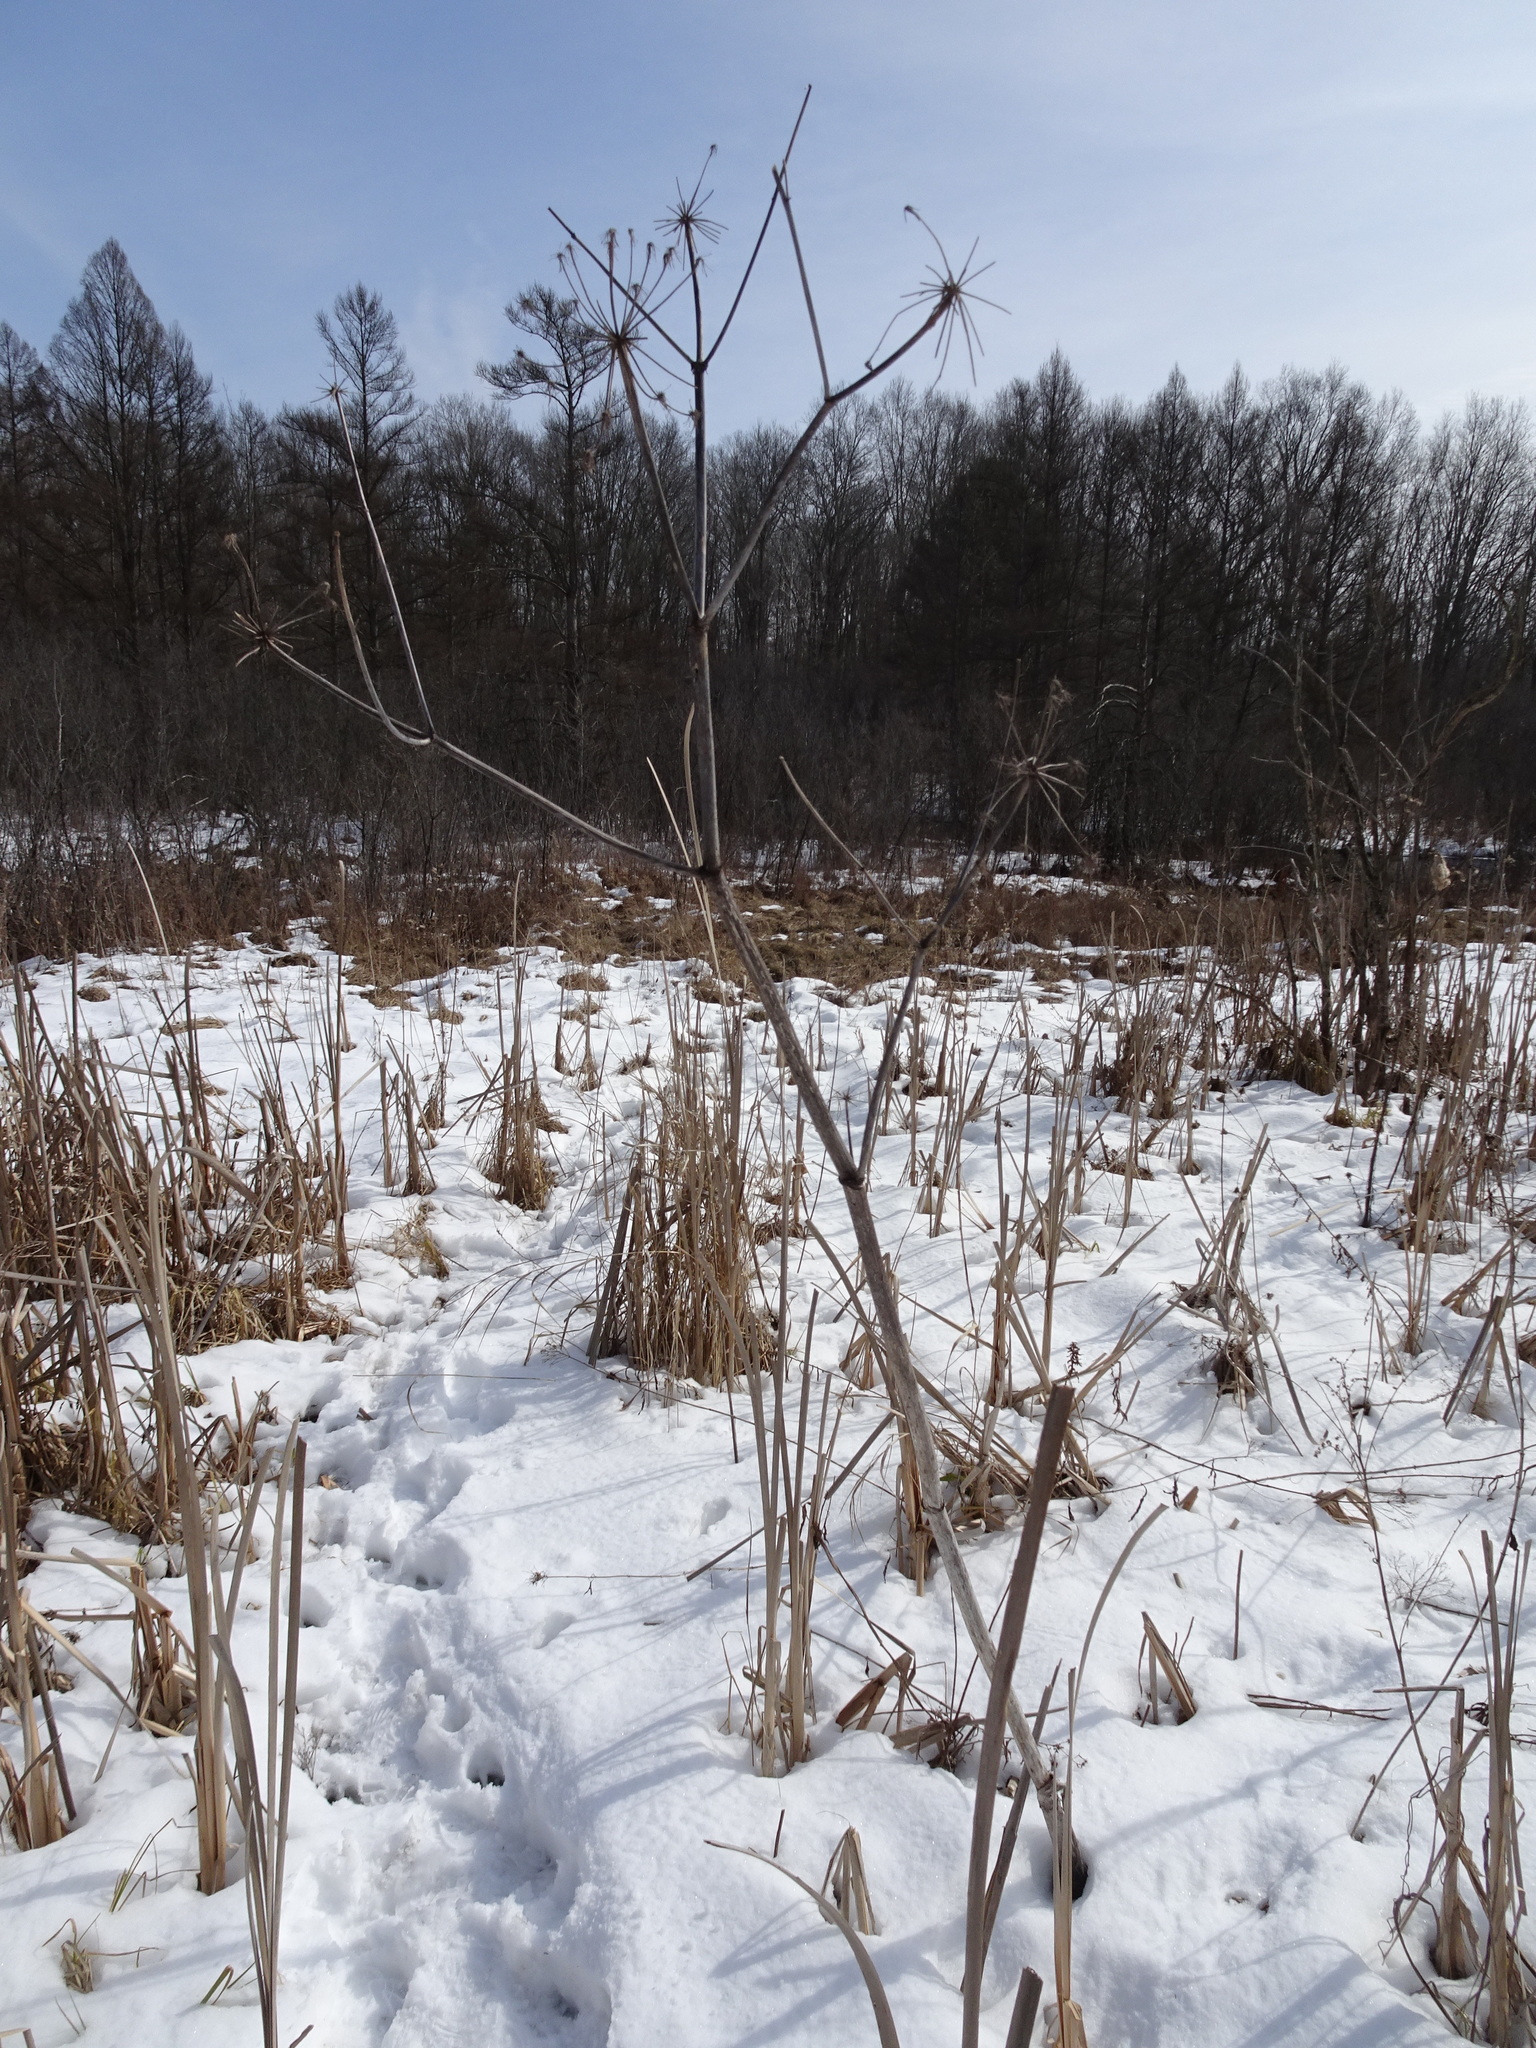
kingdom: Plantae
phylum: Tracheophyta
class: Magnoliopsida
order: Apiales
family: Apiaceae
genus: Angelica
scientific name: Angelica atropurpurea
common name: Great angelica
